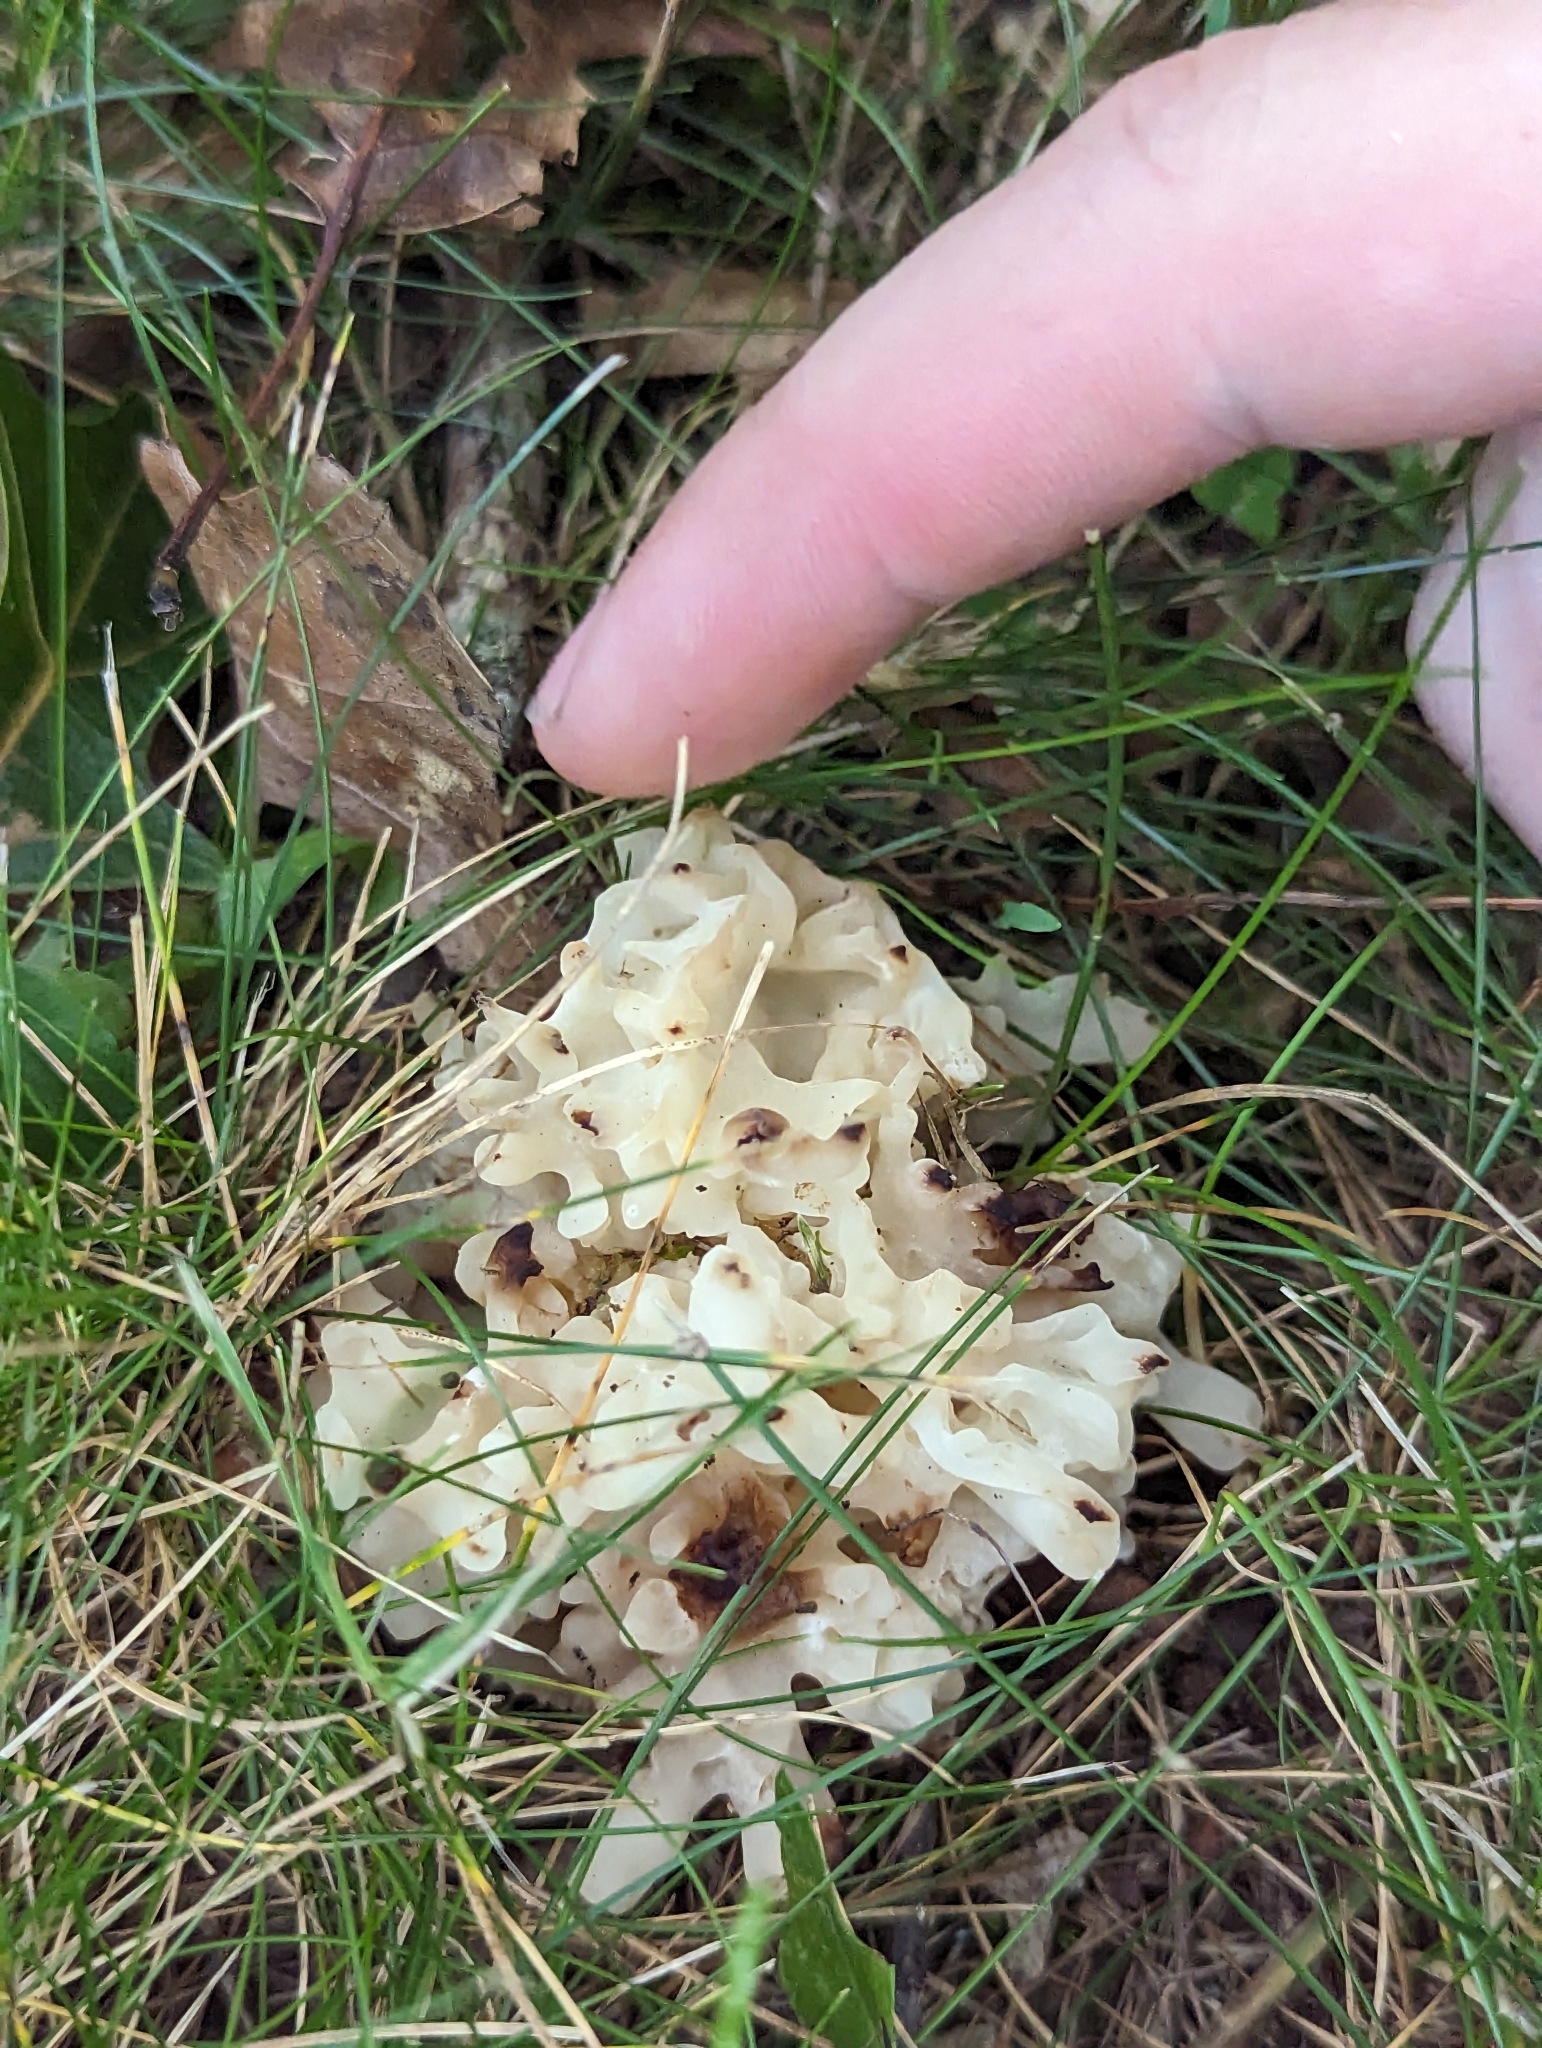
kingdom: Fungi
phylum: Basidiomycota
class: Agaricomycetes
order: Sebacinales
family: Sebacinaceae
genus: Sebacina
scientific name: Sebacina sparassoidea
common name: White coral jelly fungus
